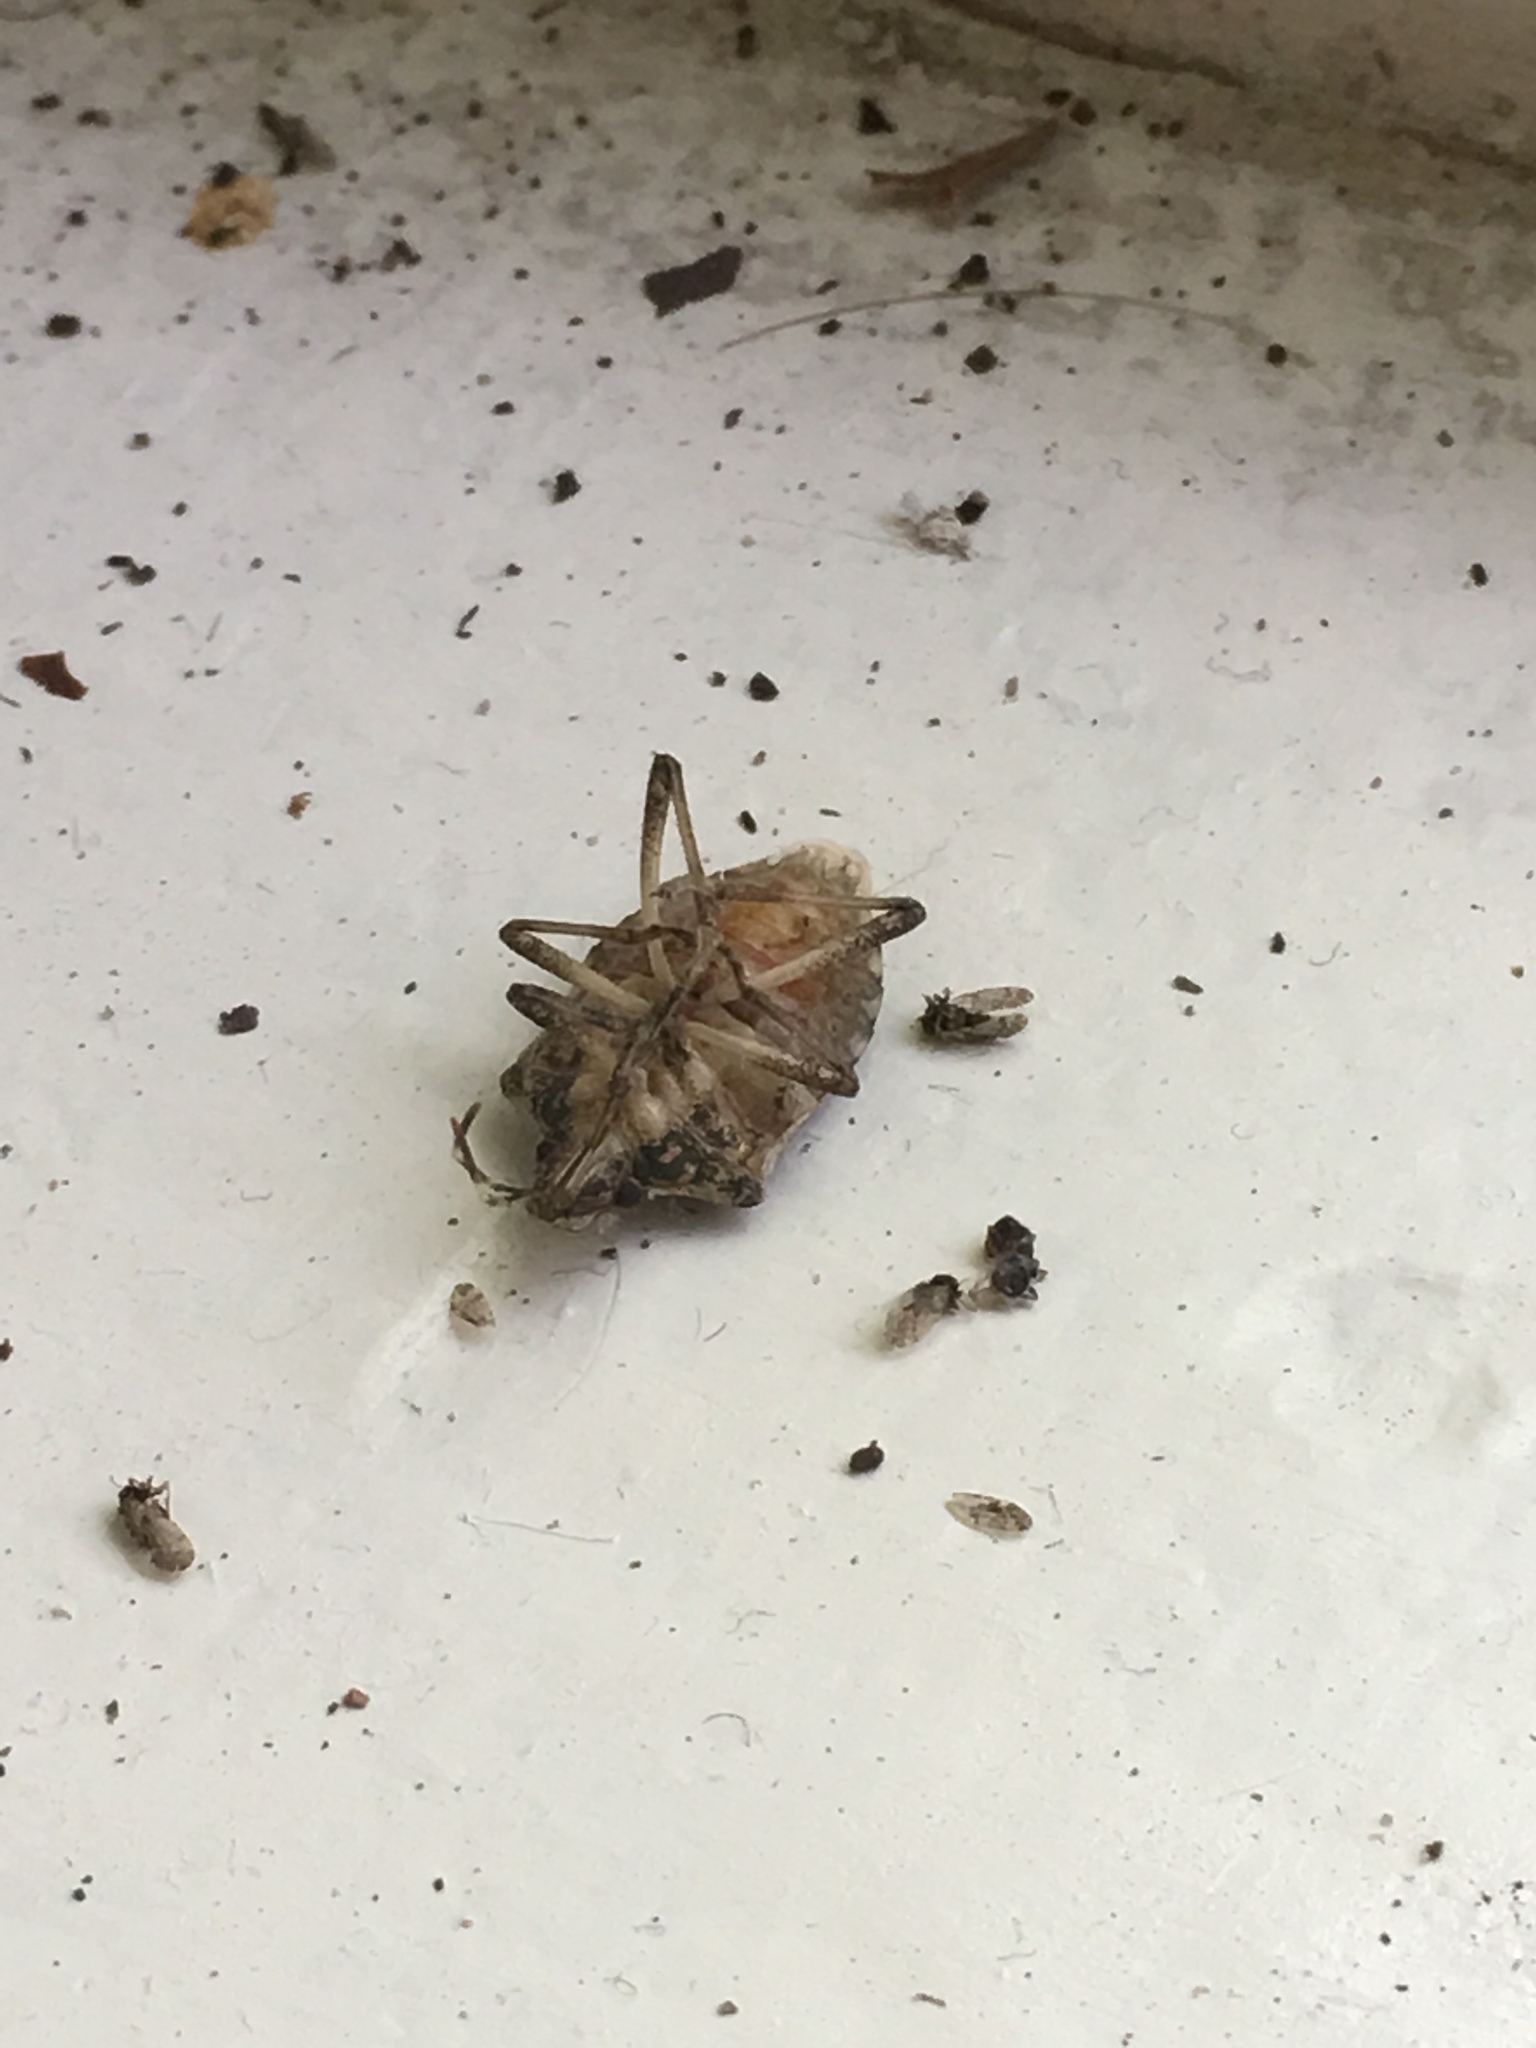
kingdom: Animalia
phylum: Arthropoda
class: Insecta
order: Hemiptera
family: Pentatomidae
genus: Halyomorpha
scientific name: Halyomorpha halys
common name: Brown marmorated stink bug
